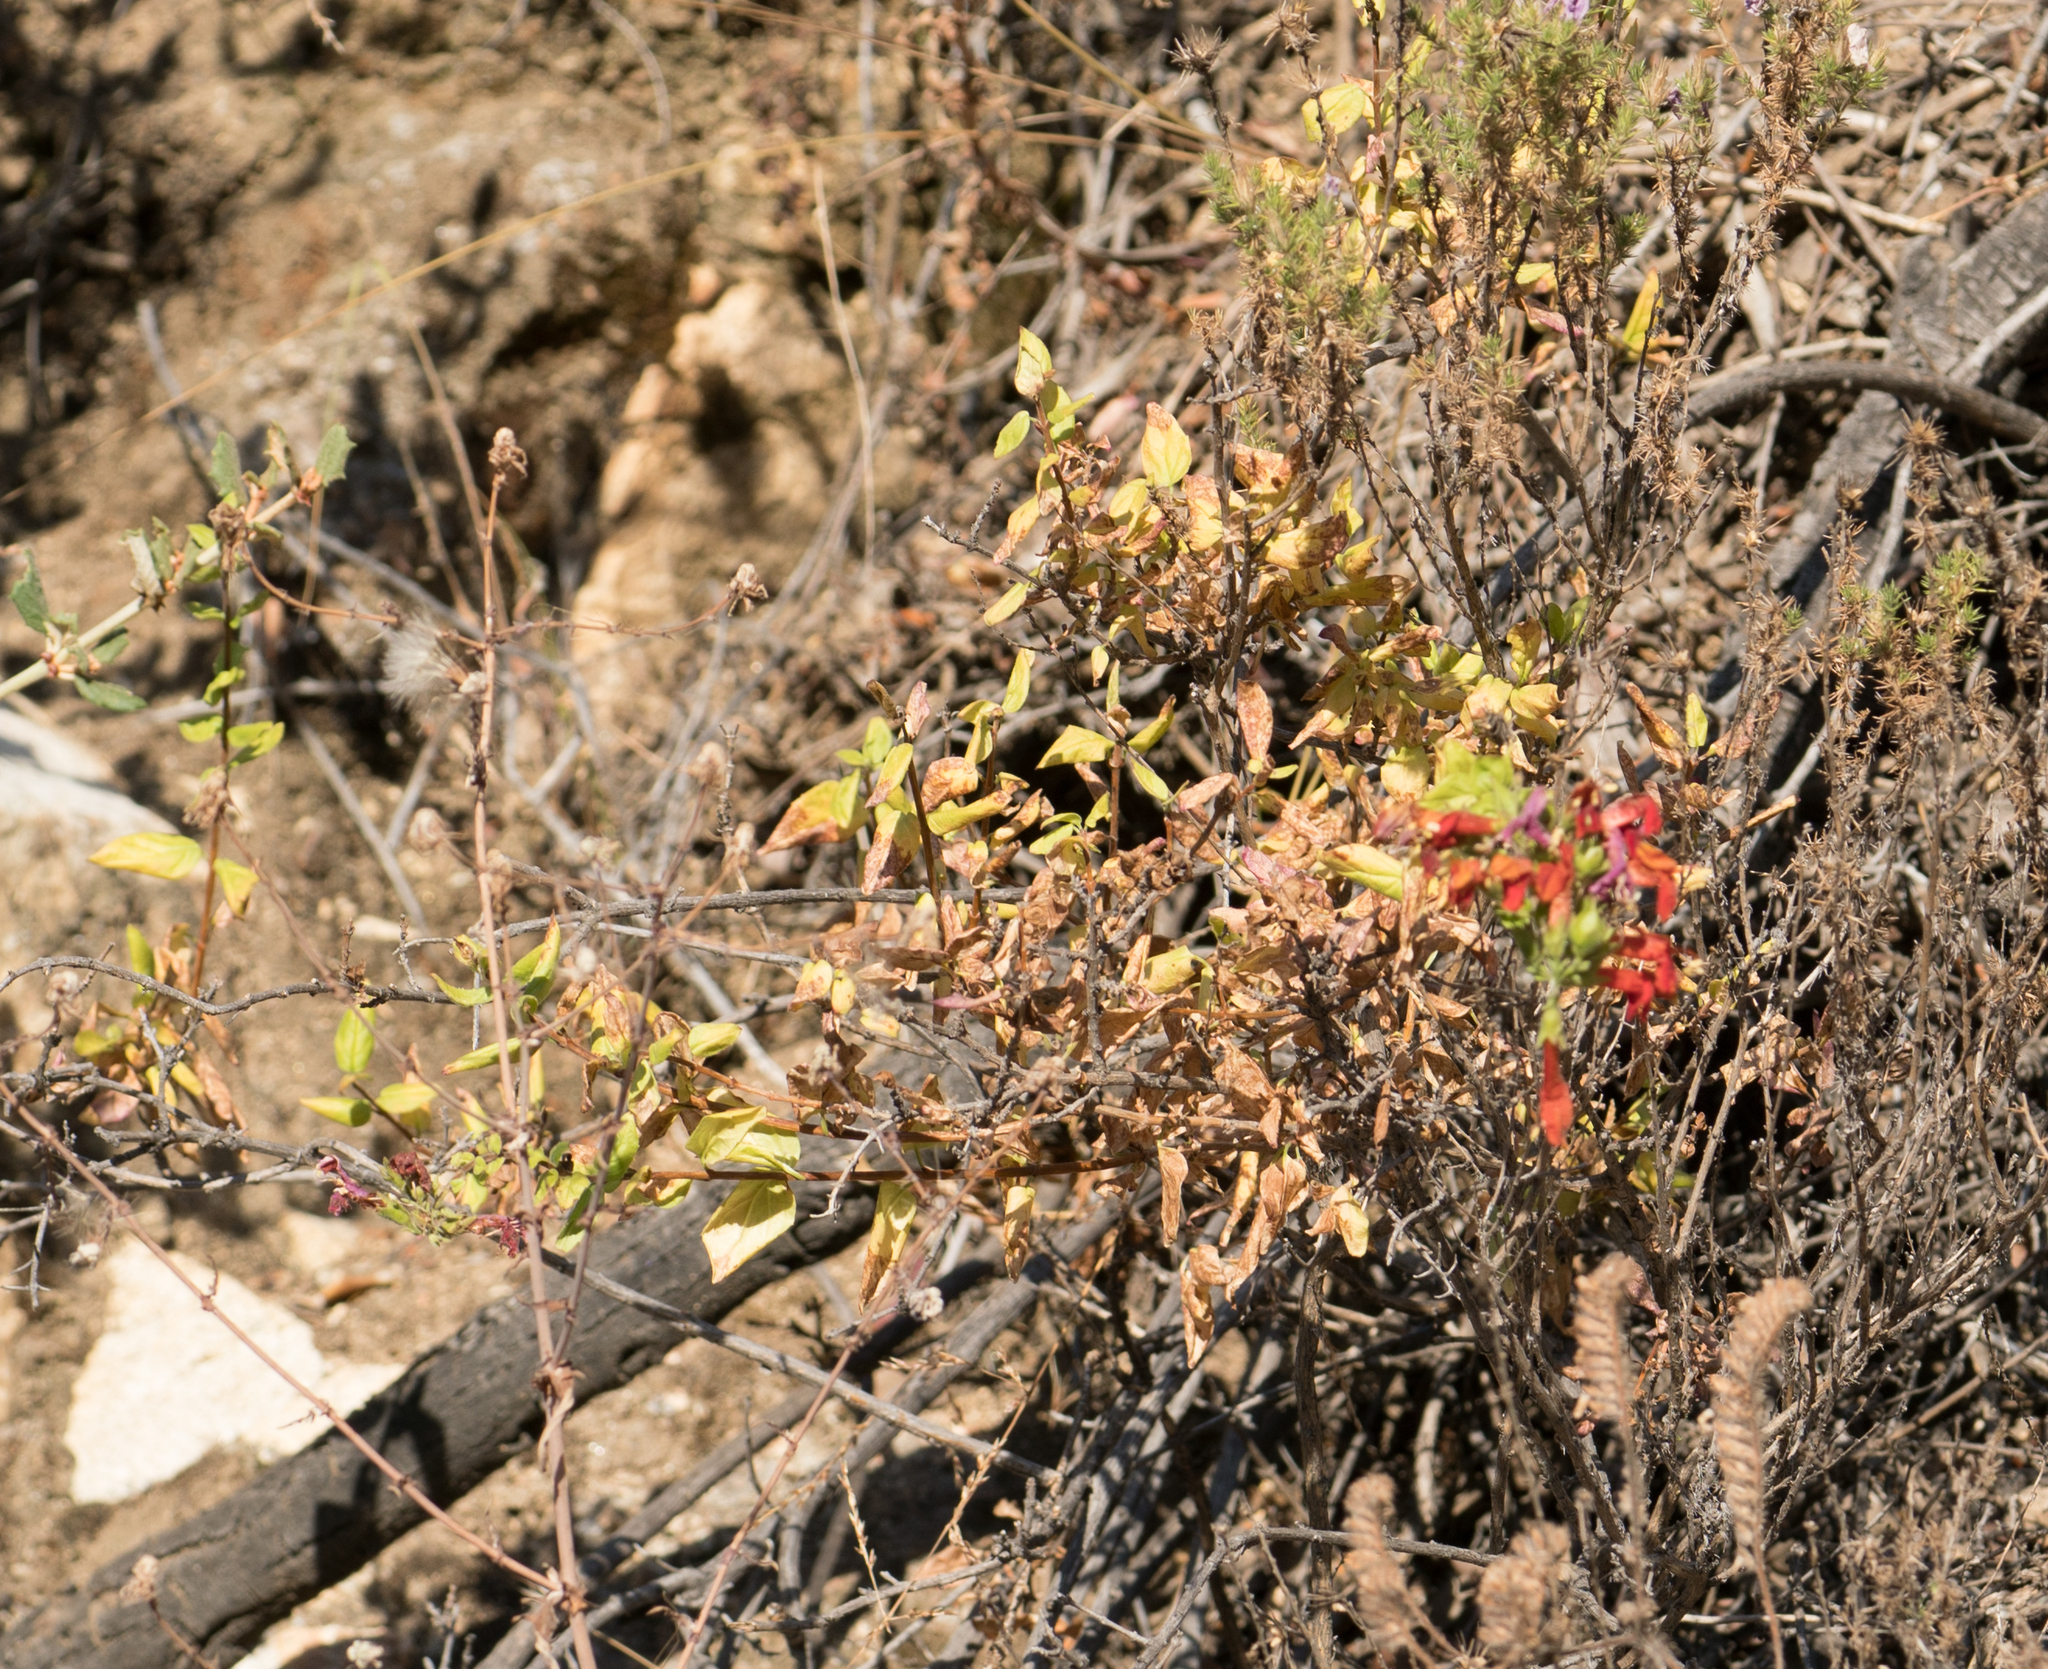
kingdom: Plantae
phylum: Tracheophyta
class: Magnoliopsida
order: Lamiales
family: Plantaginaceae
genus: Keckiella
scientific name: Keckiella cordifolia
